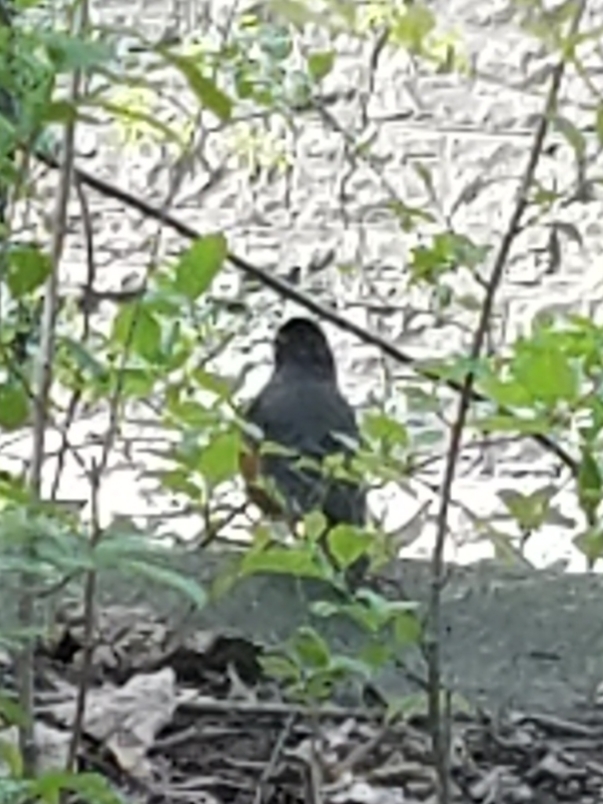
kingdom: Animalia
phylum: Chordata
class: Aves
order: Passeriformes
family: Turdidae
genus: Turdus
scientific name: Turdus migratorius
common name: American robin
